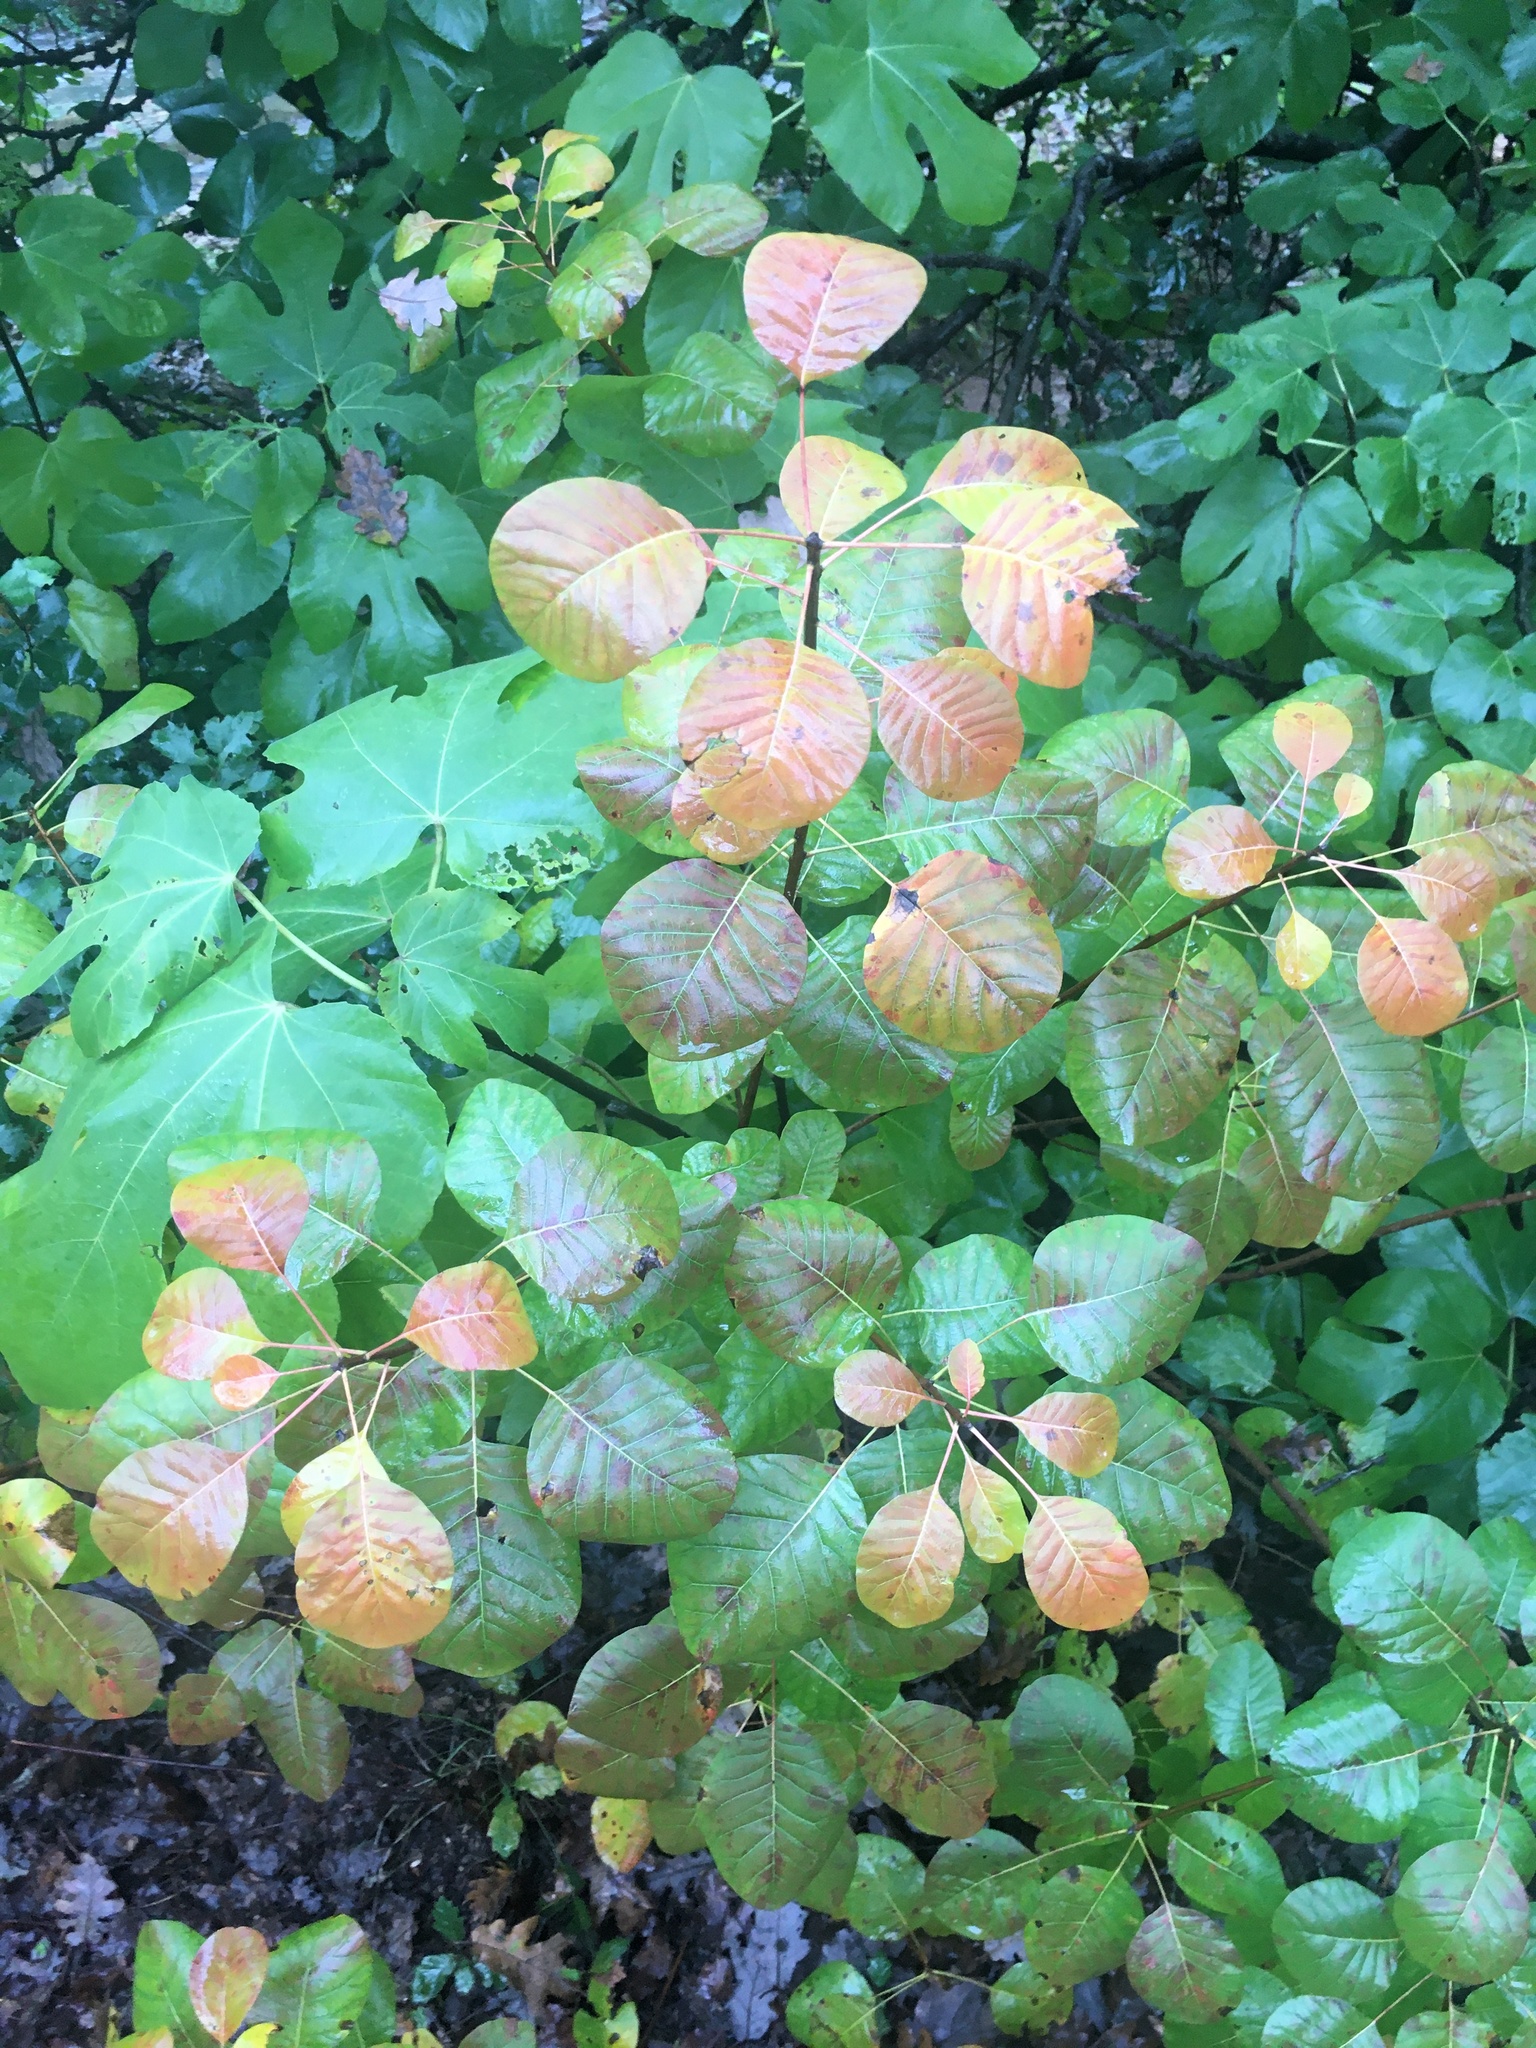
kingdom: Plantae
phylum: Tracheophyta
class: Magnoliopsida
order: Sapindales
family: Anacardiaceae
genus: Cotinus
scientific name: Cotinus coggygria
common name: Smoke-tree
